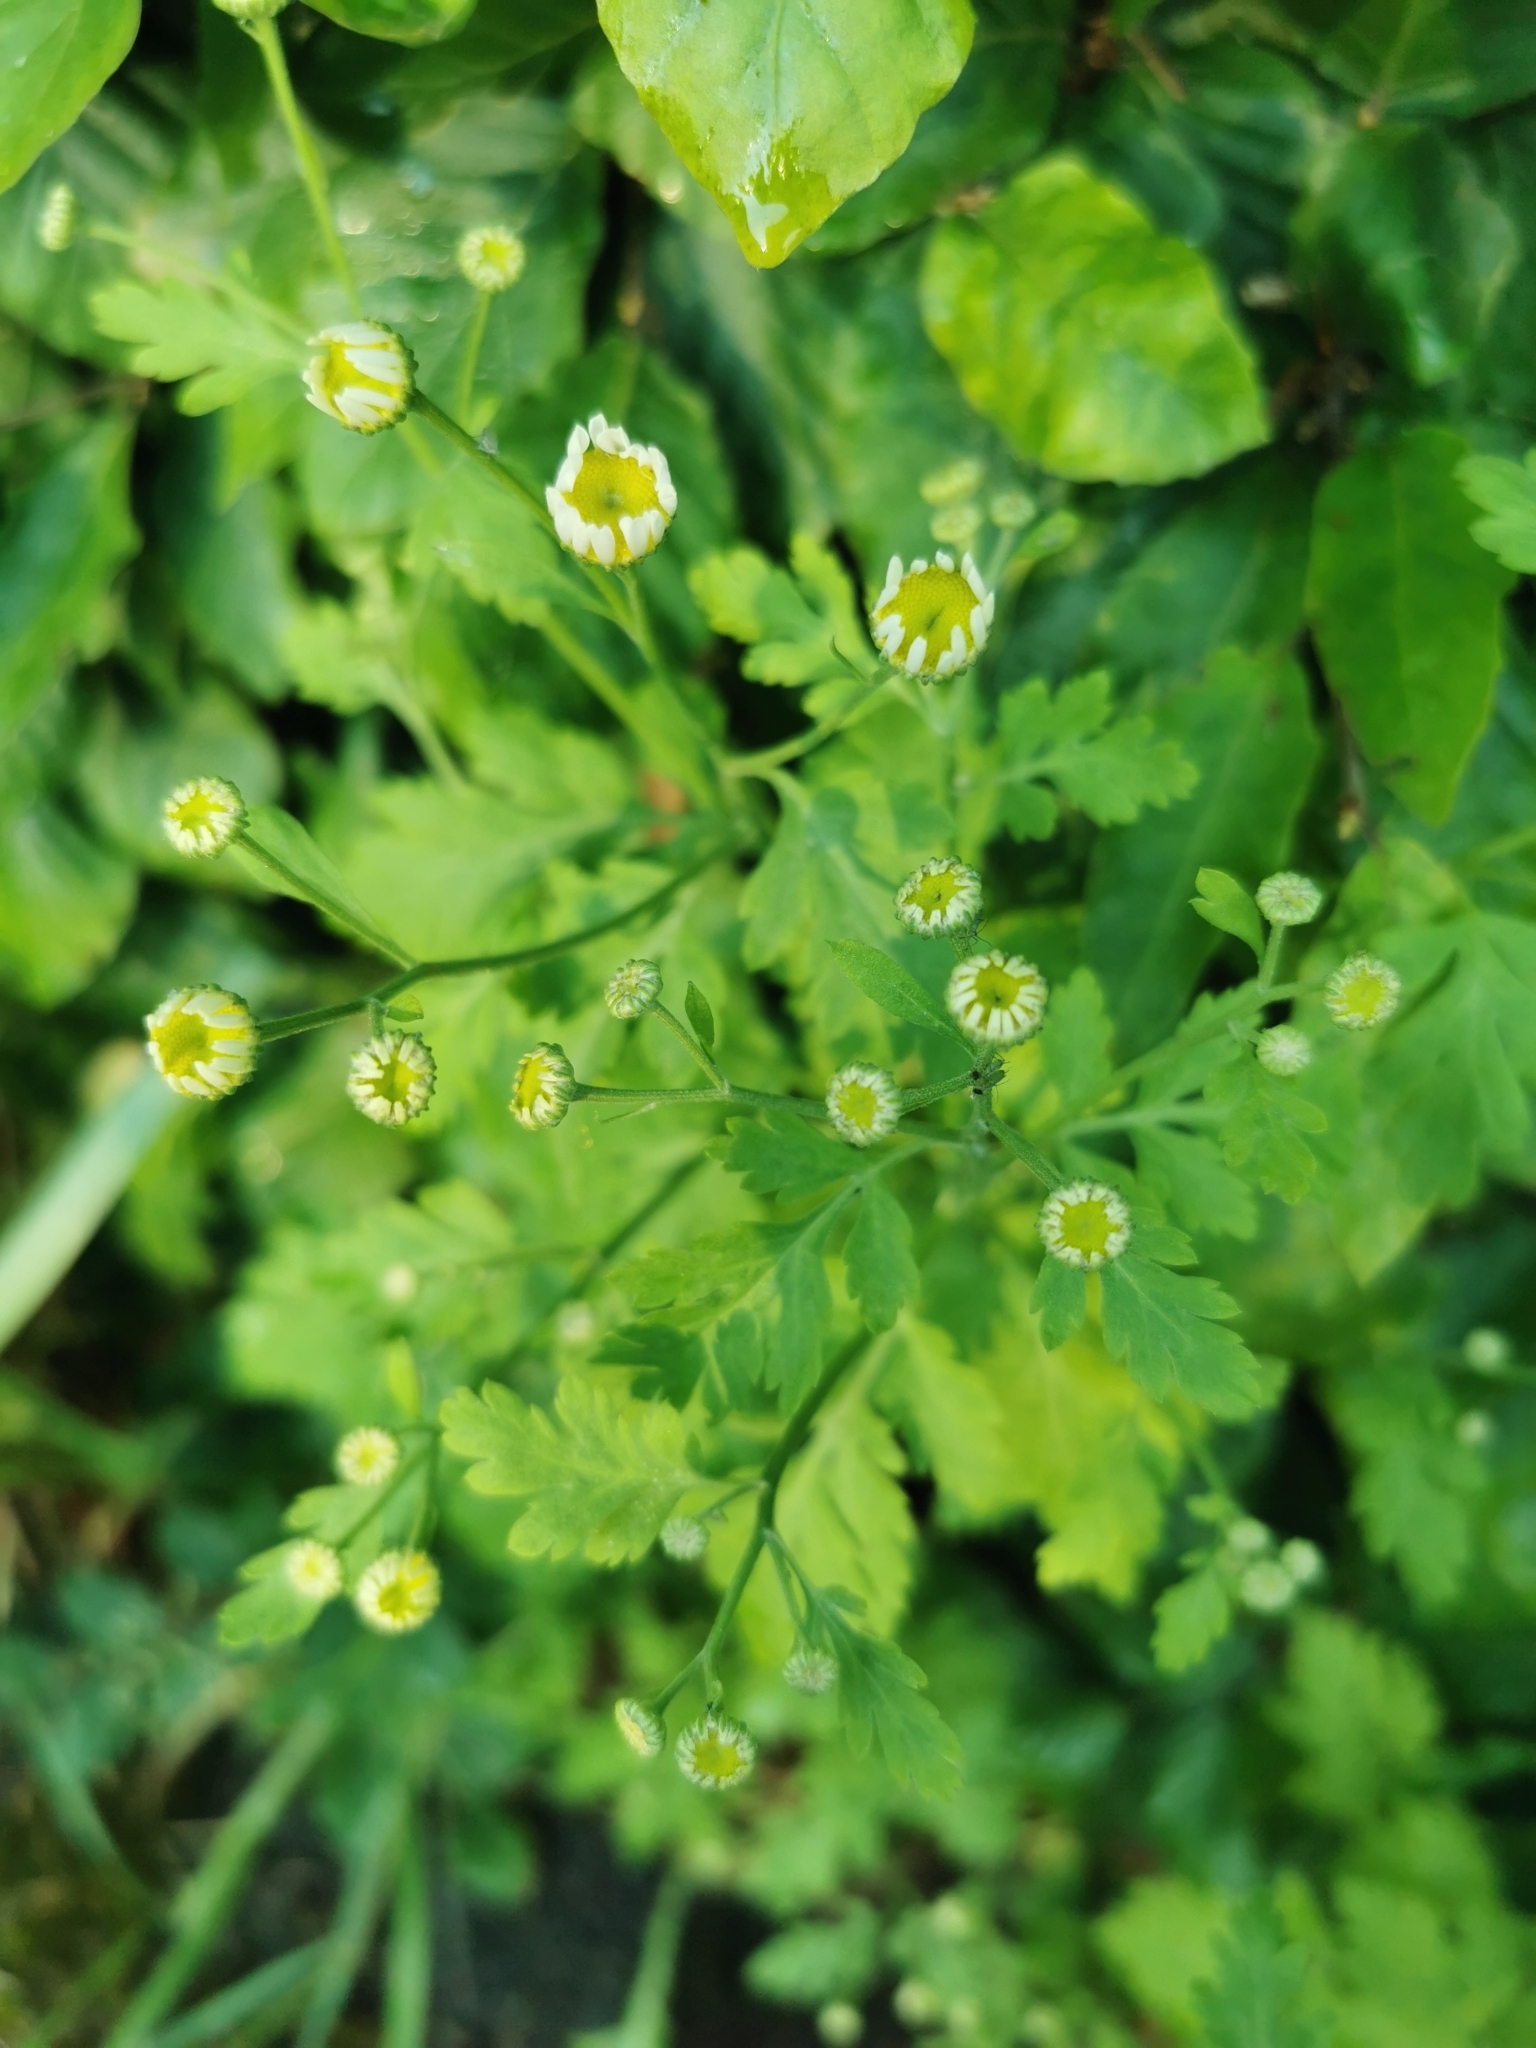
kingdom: Plantae
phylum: Tracheophyta
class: Magnoliopsida
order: Asterales
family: Asteraceae
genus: Tanacetum
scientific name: Tanacetum parthenium
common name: Feverfew
